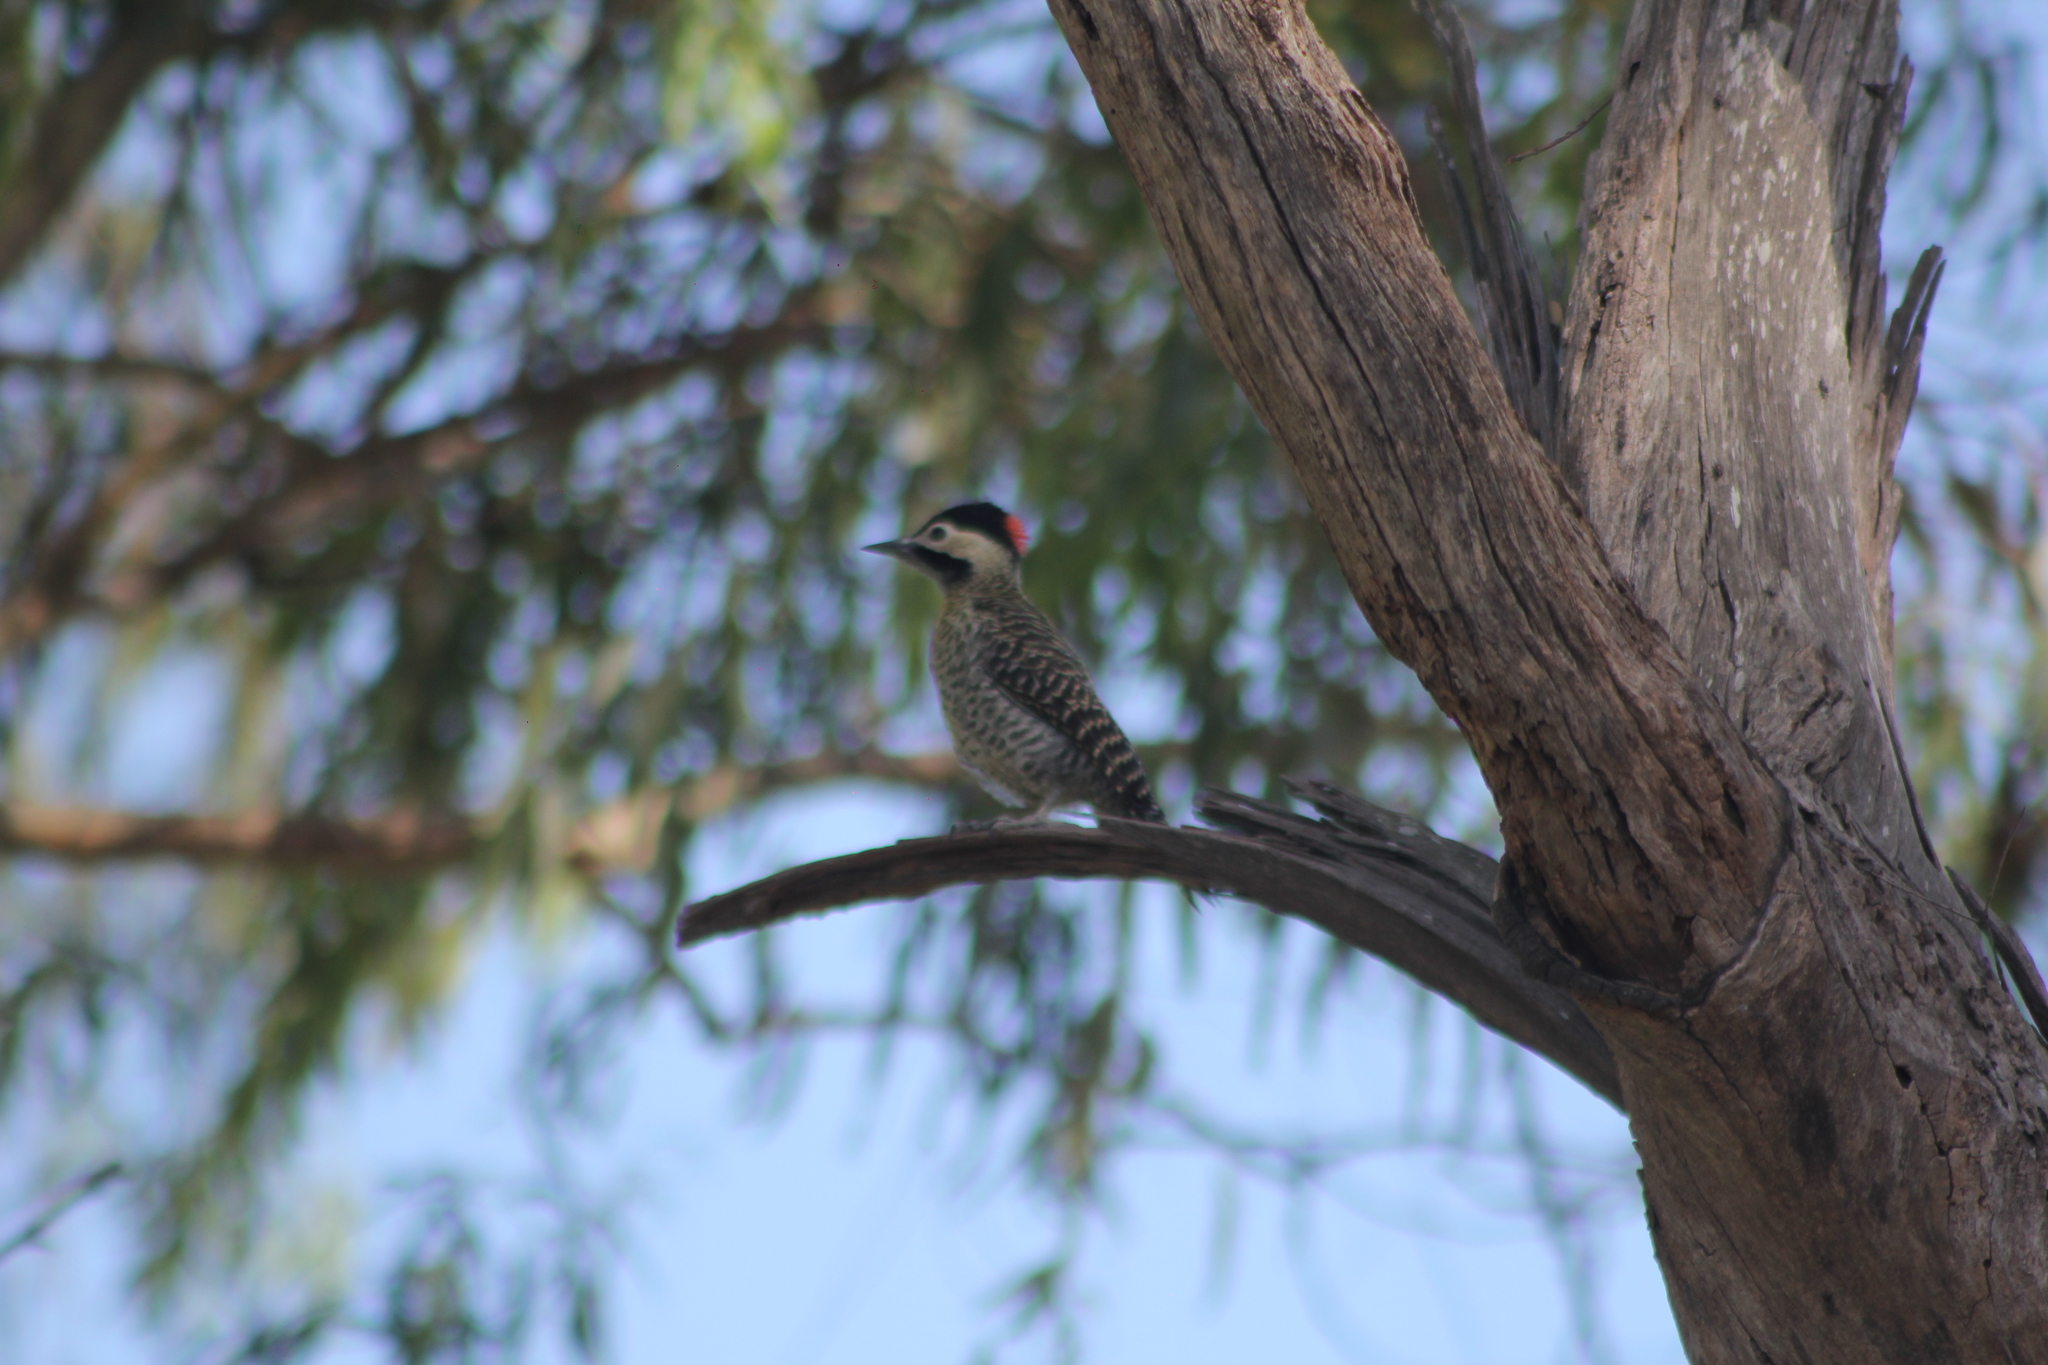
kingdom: Animalia
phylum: Chordata
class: Aves
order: Piciformes
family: Picidae
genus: Colaptes
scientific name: Colaptes melanochloros
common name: Green-barred woodpecker
